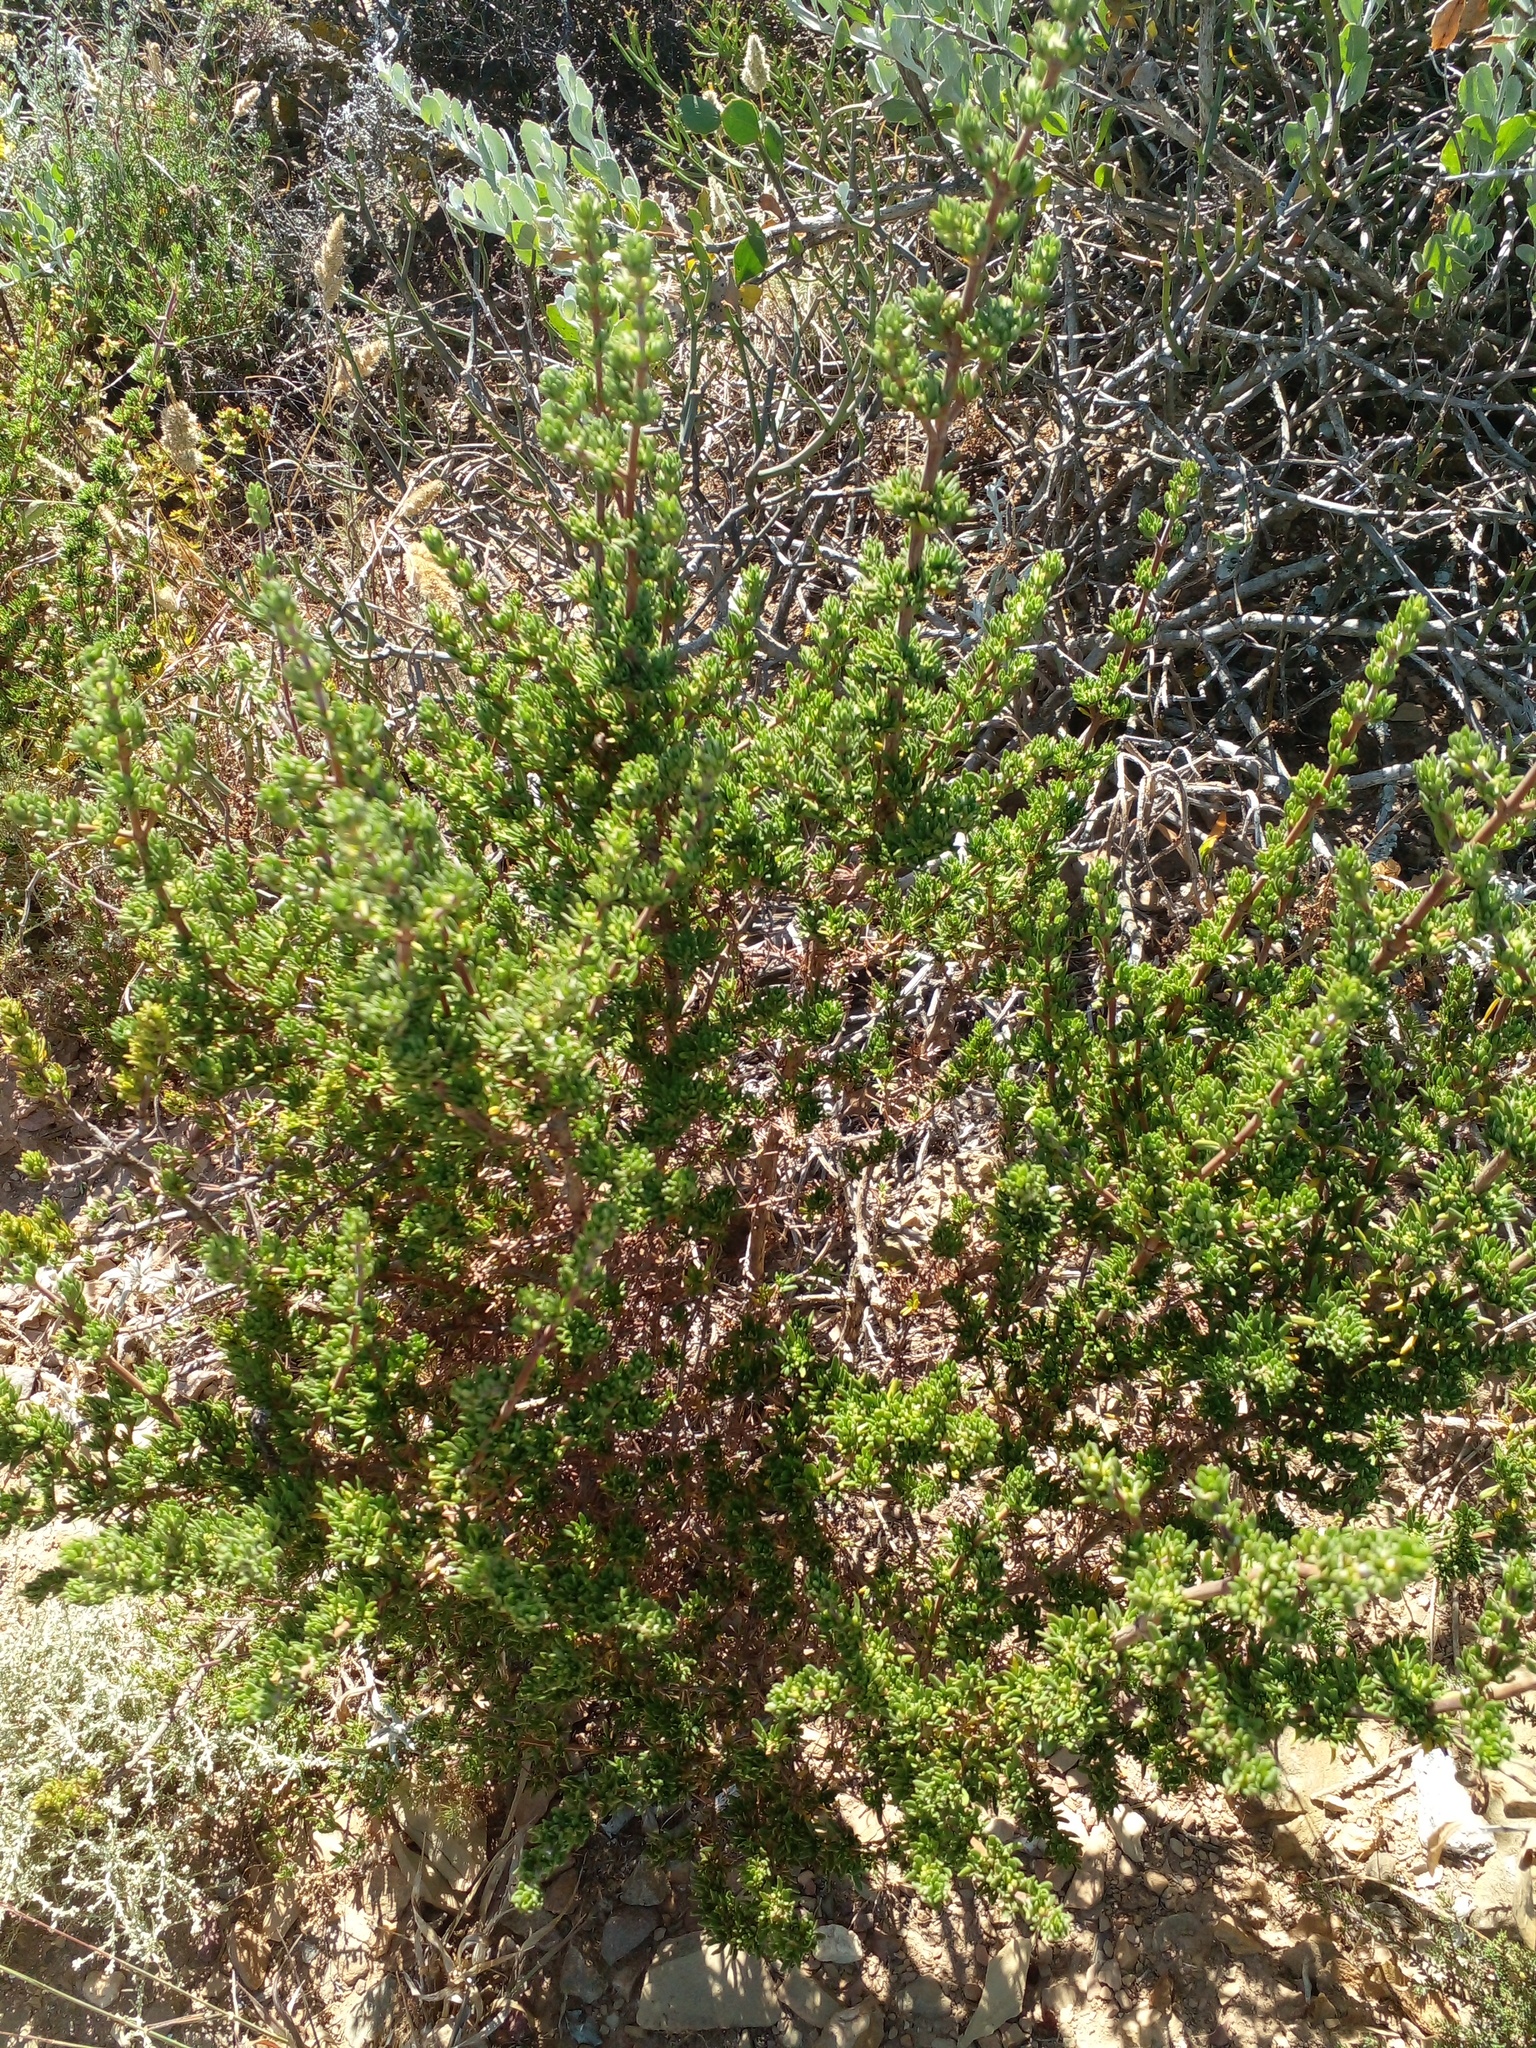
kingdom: Plantae
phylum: Tracheophyta
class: Magnoliopsida
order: Saxifragales
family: Crassulaceae
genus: Tylecodon
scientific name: Tylecodon paniculatus
